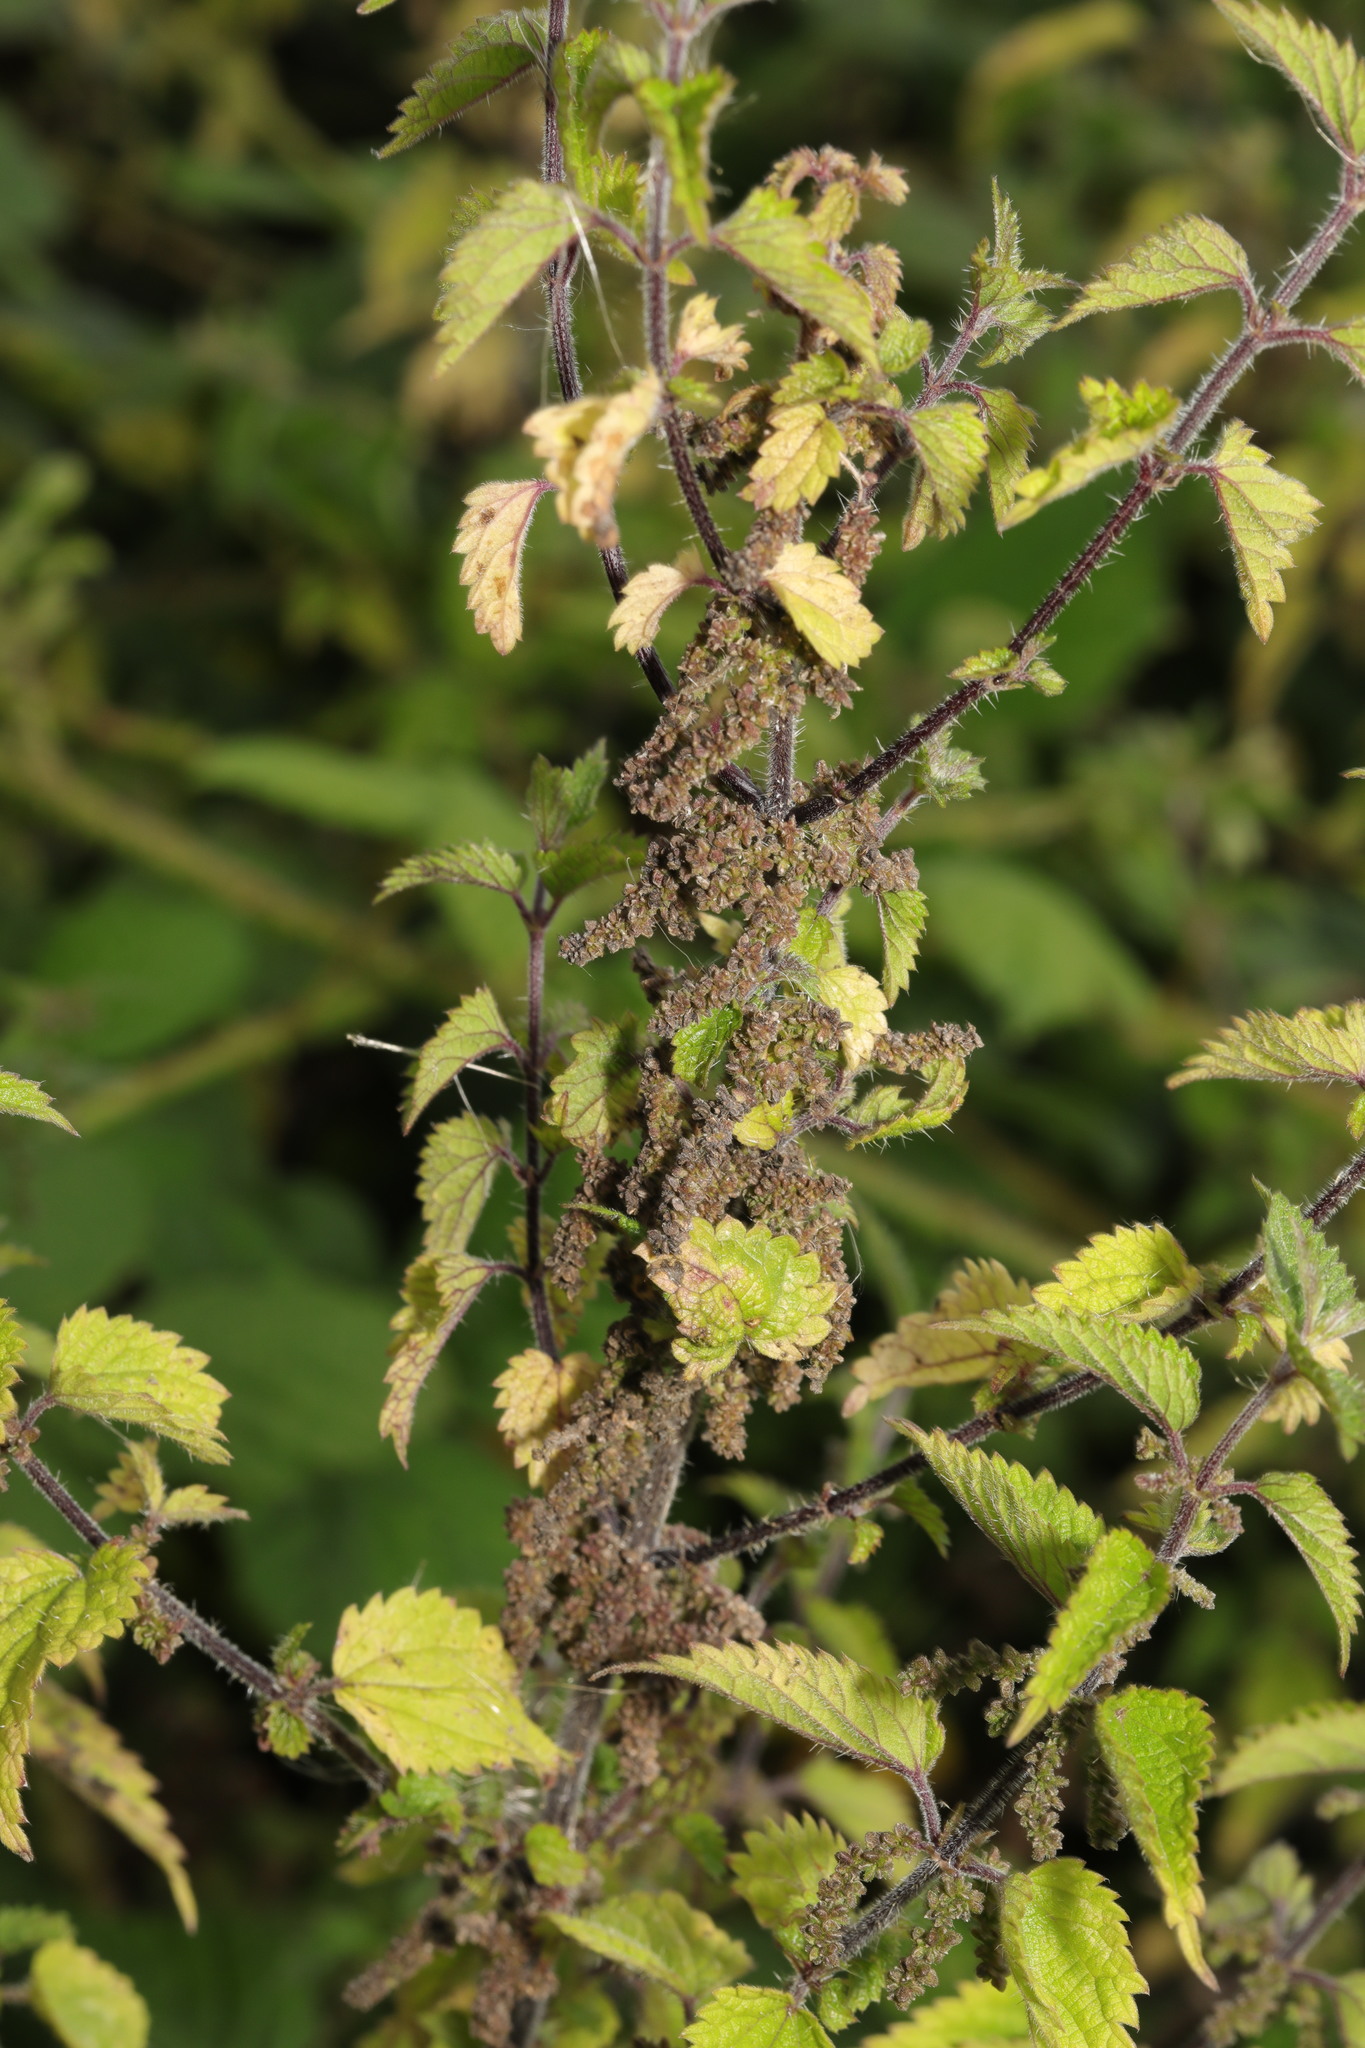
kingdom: Plantae
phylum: Tracheophyta
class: Magnoliopsida
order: Rosales
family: Urticaceae
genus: Urtica
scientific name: Urtica dioica
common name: Common nettle
